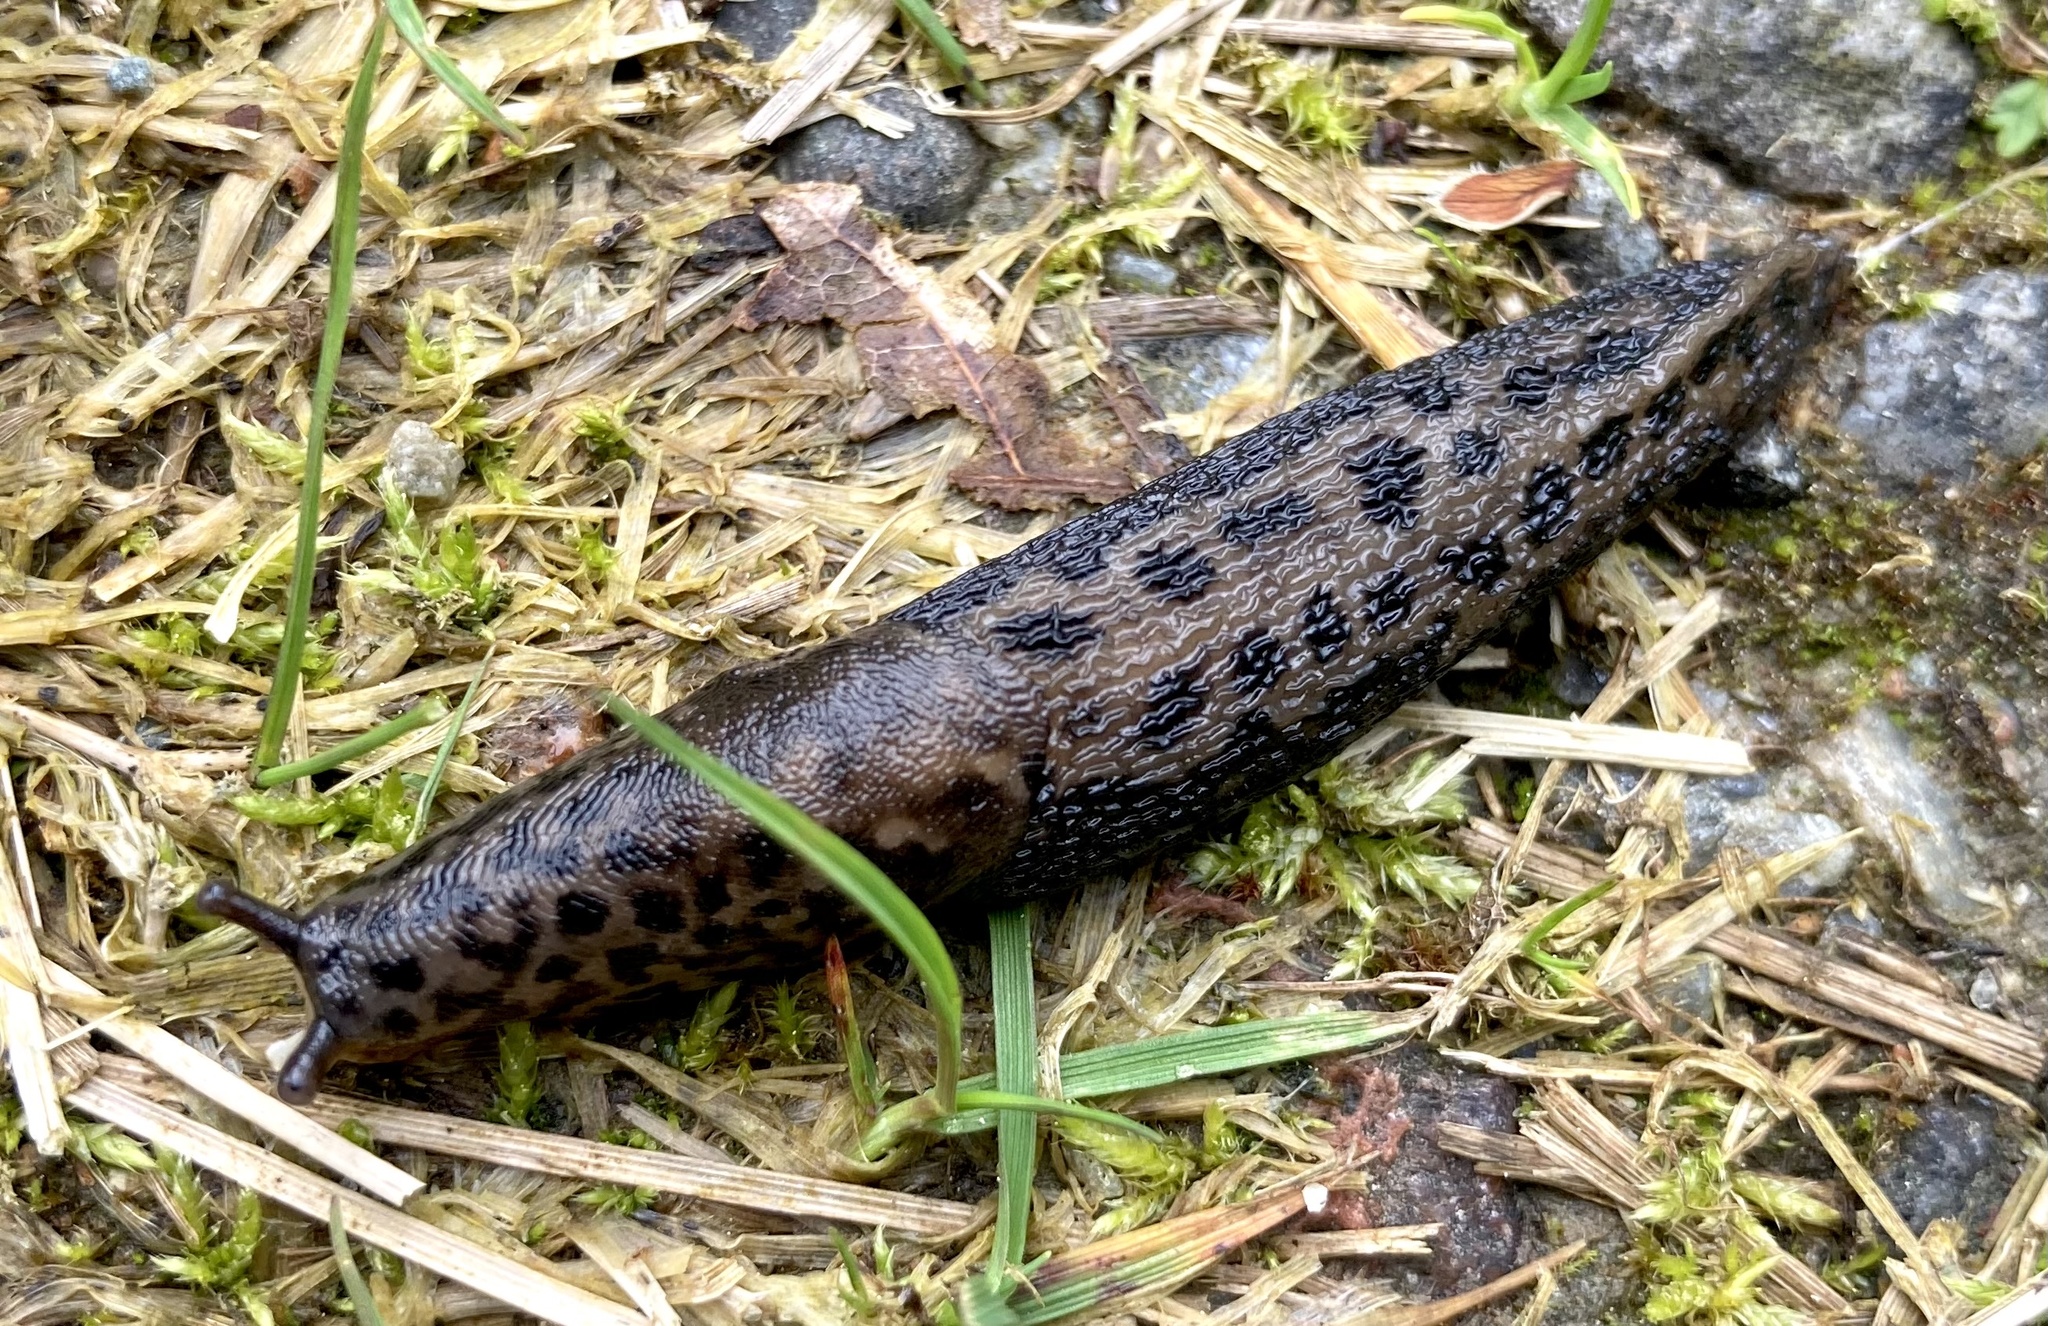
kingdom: Animalia
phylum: Mollusca
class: Gastropoda
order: Stylommatophora
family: Limacidae
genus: Limax
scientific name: Limax maximus
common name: Great grey slug
